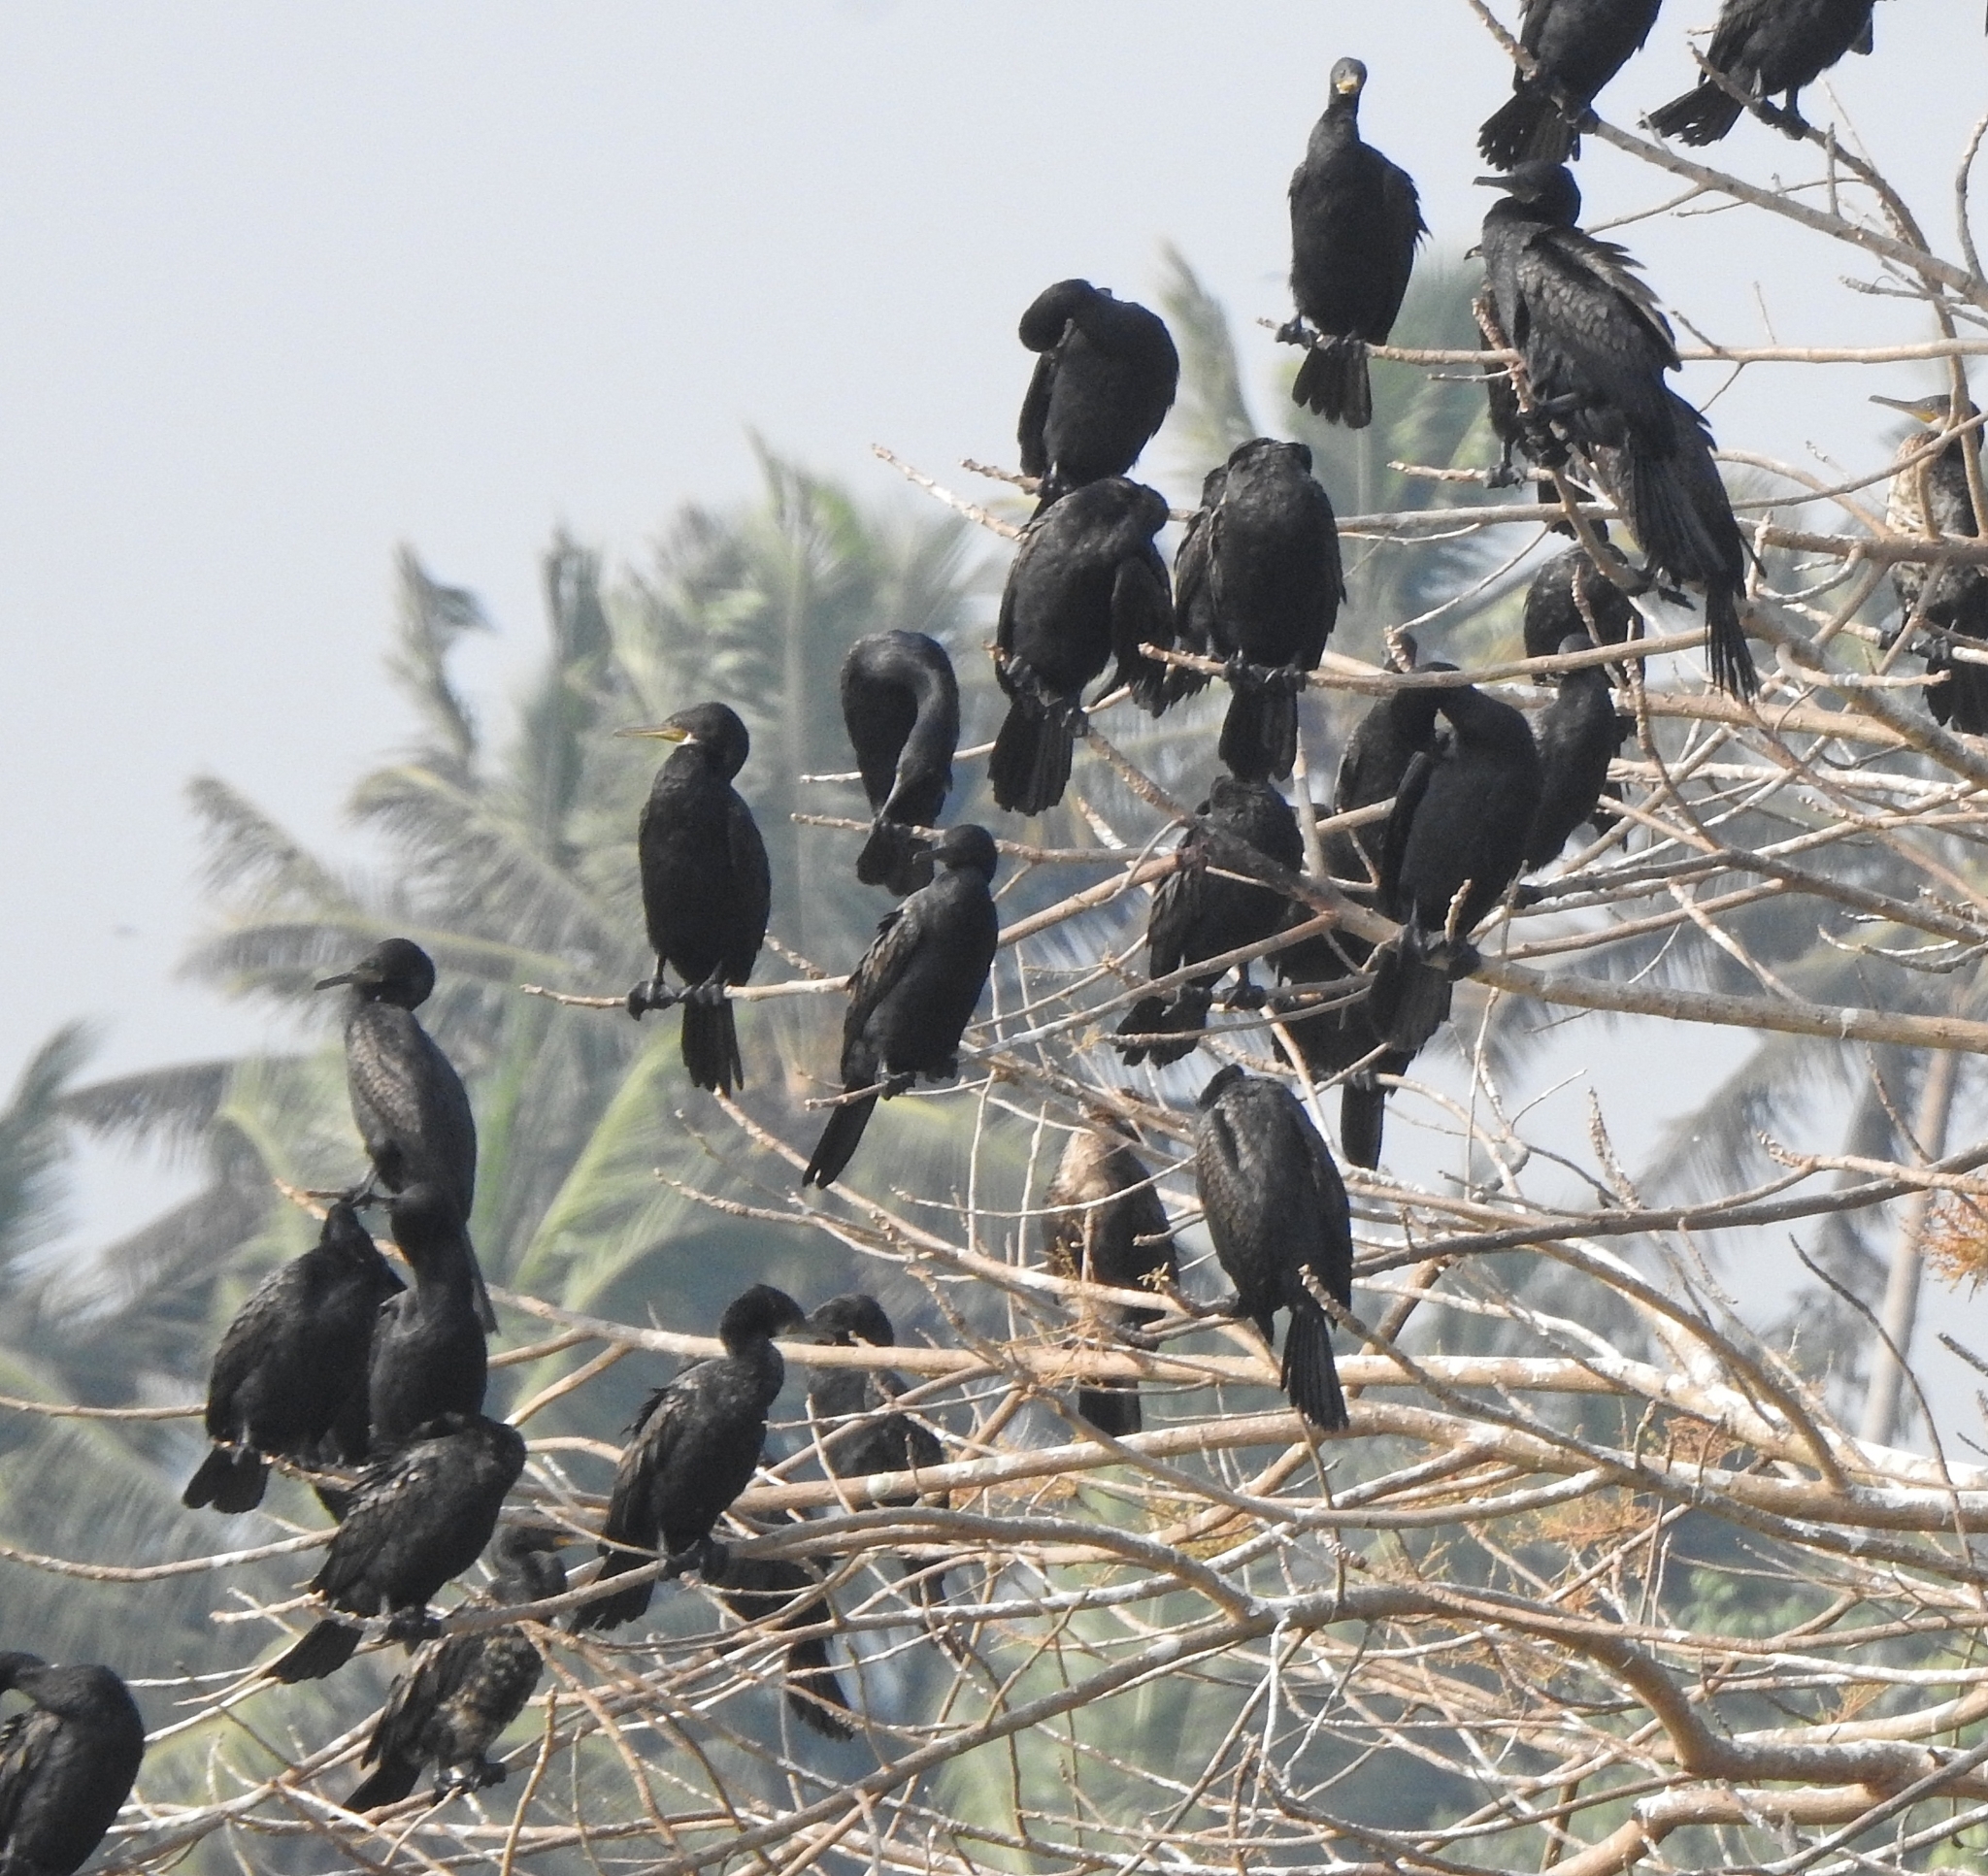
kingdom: Animalia
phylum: Chordata
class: Aves
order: Suliformes
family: Phalacrocoracidae
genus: Phalacrocorax
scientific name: Phalacrocorax fuscicollis
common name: Indian cormorant
